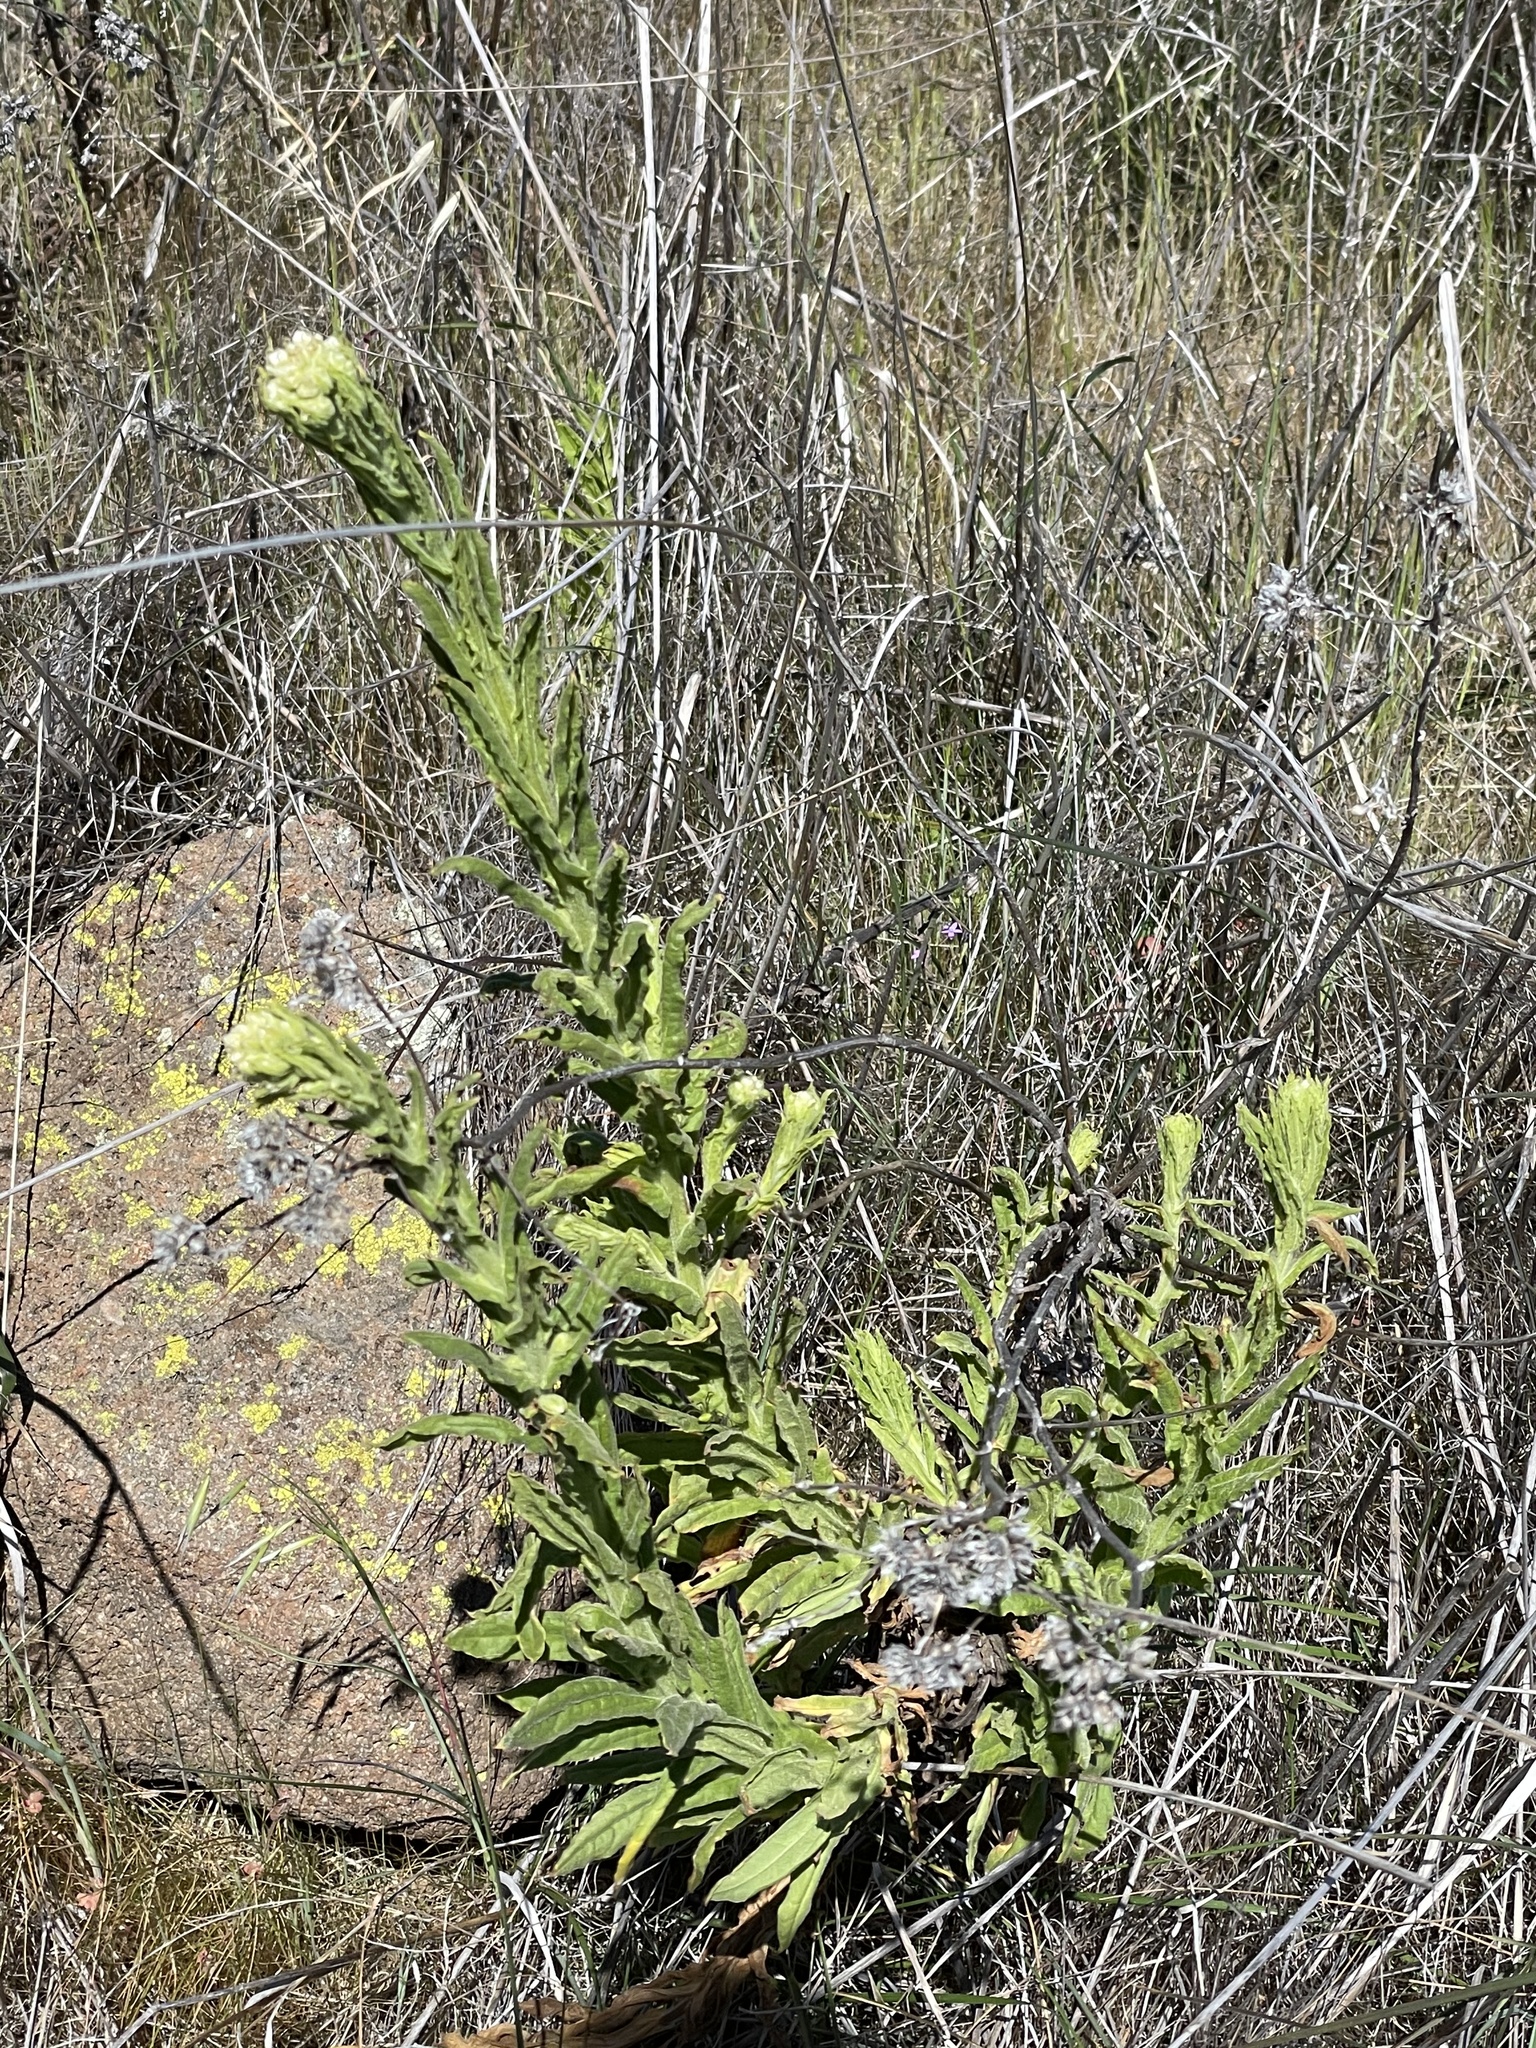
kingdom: Plantae
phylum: Tracheophyta
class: Magnoliopsida
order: Asterales
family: Asteraceae
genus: Pseudognaphalium
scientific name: Pseudognaphalium californicum
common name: California rabbit-tobacco
